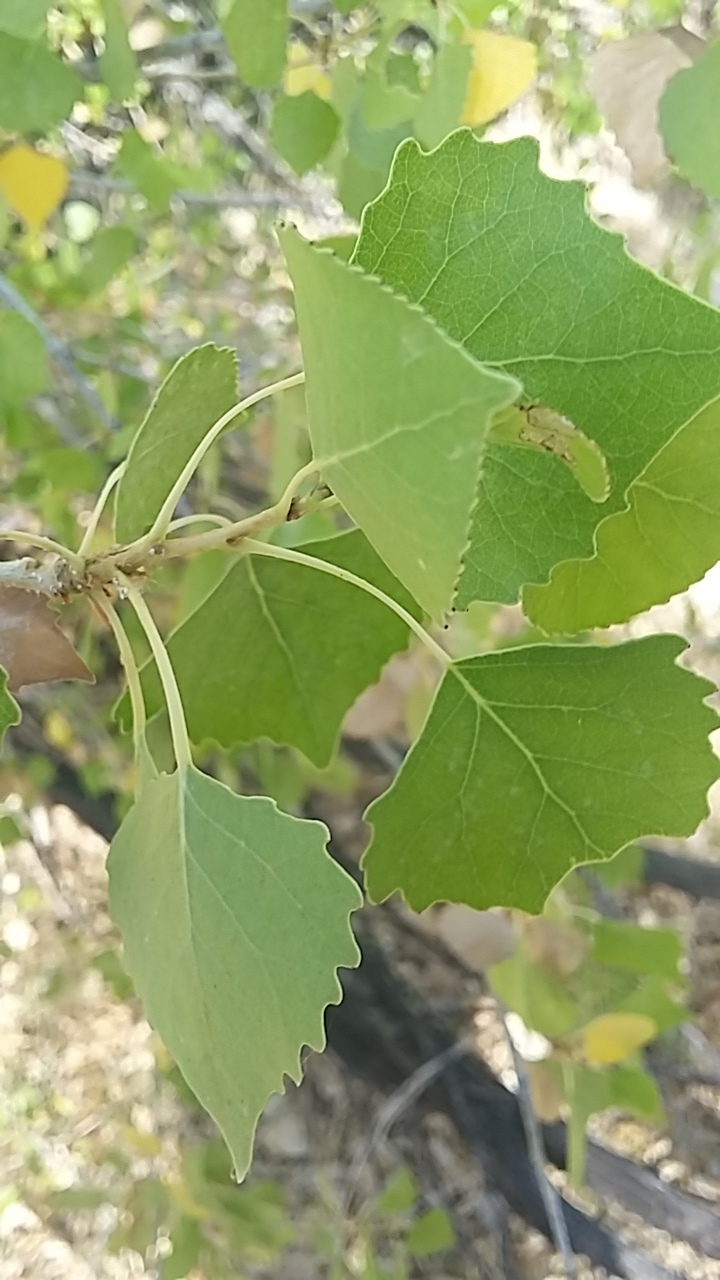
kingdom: Plantae
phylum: Tracheophyta
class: Magnoliopsida
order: Malpighiales
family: Salicaceae
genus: Populus
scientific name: Populus fremontii
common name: Fremont's cottonwood
